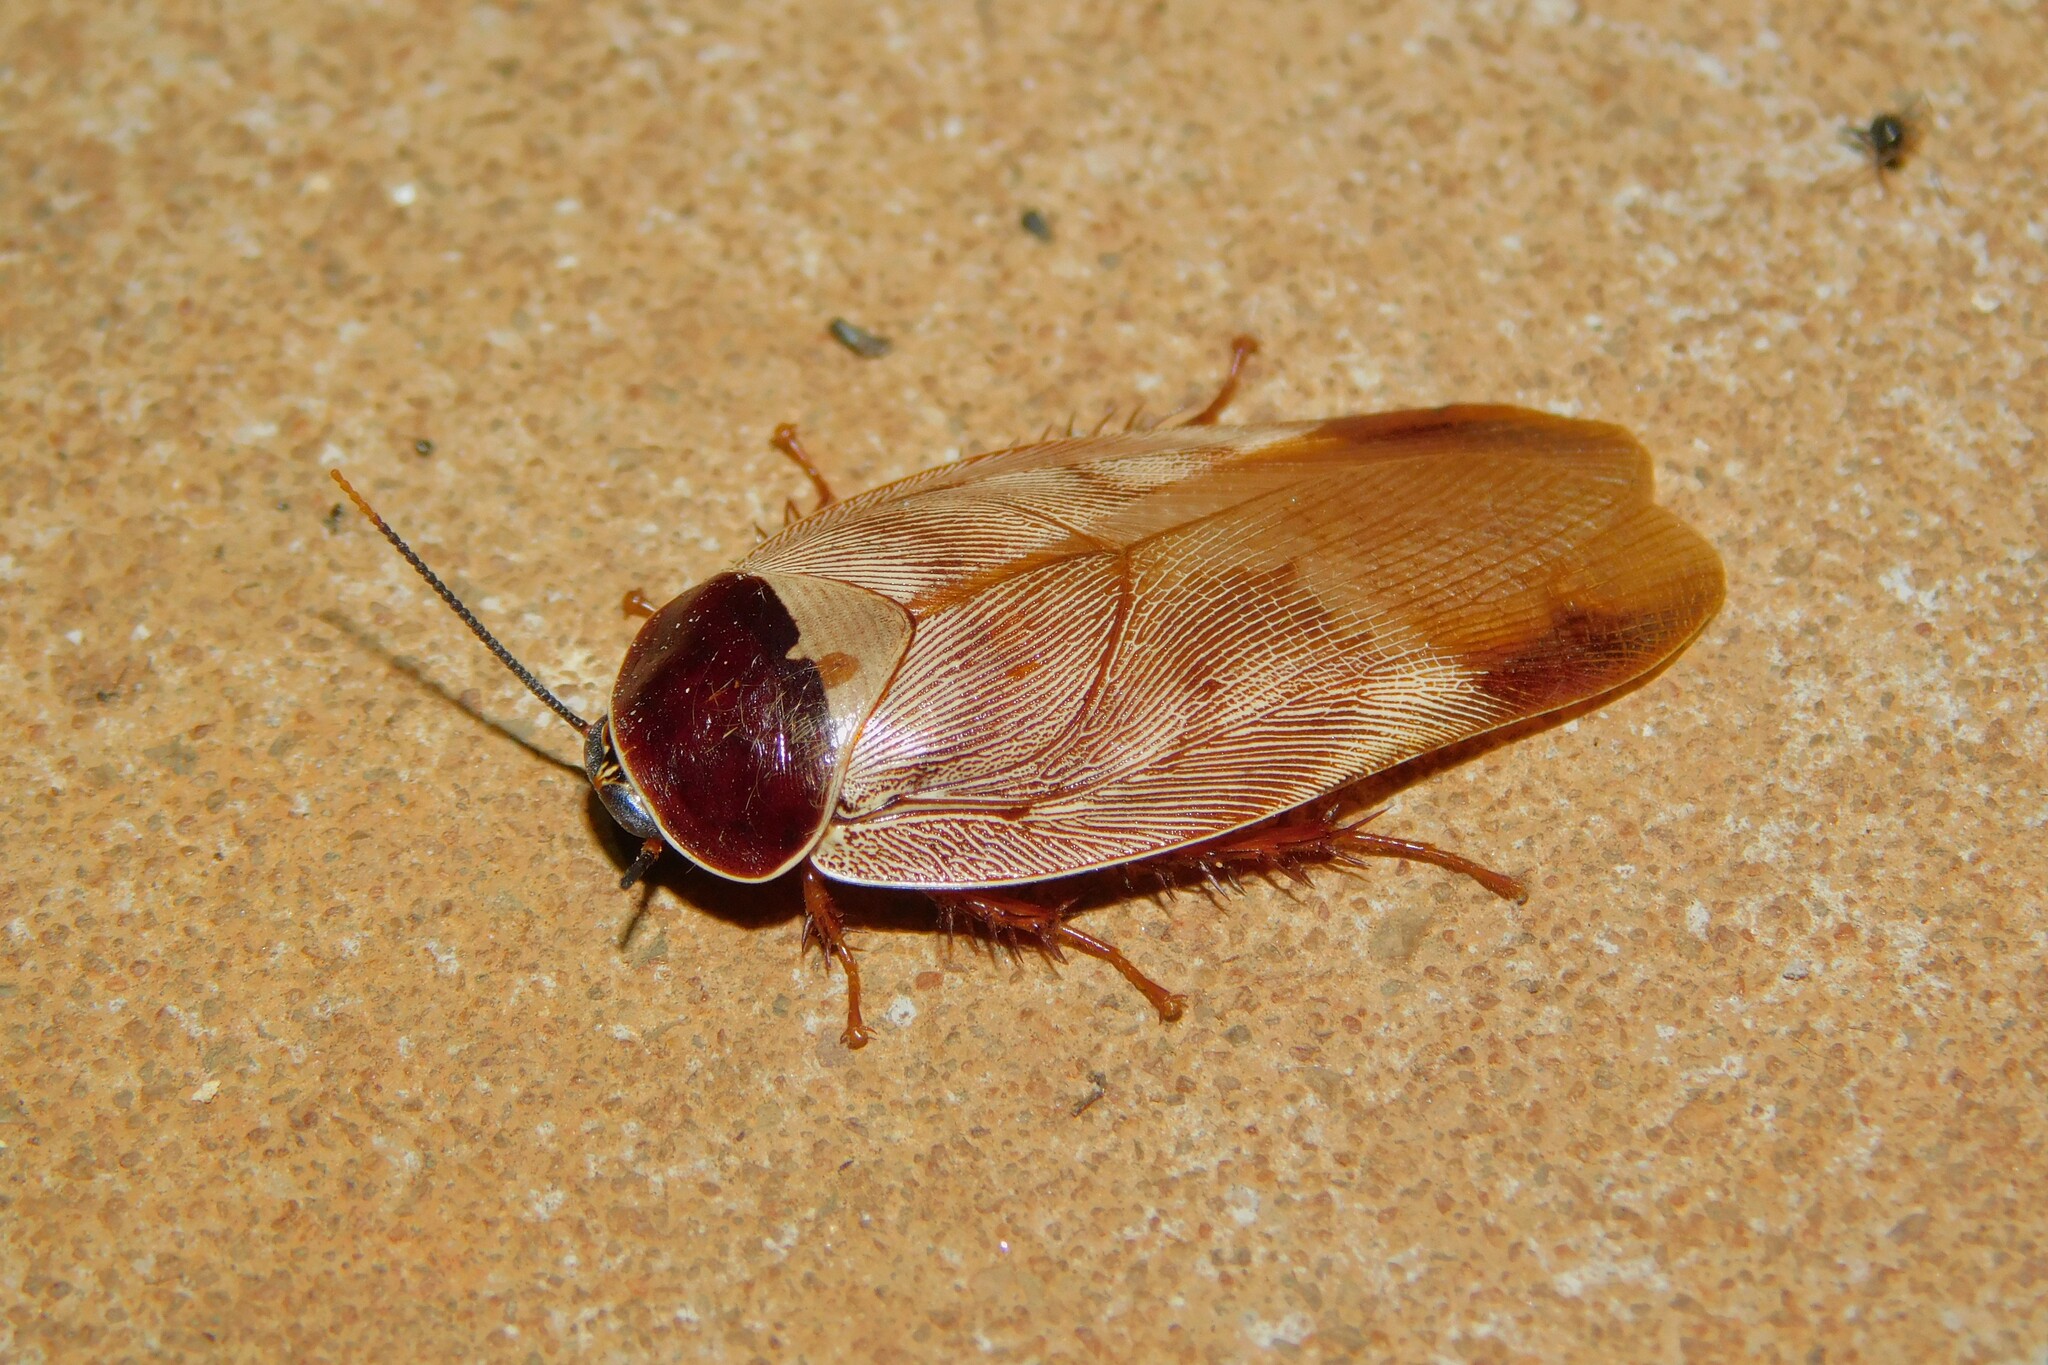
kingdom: Animalia
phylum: Arthropoda
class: Insecta
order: Blattodea
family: Blaberidae
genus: Gyna
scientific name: Gyna capucina
